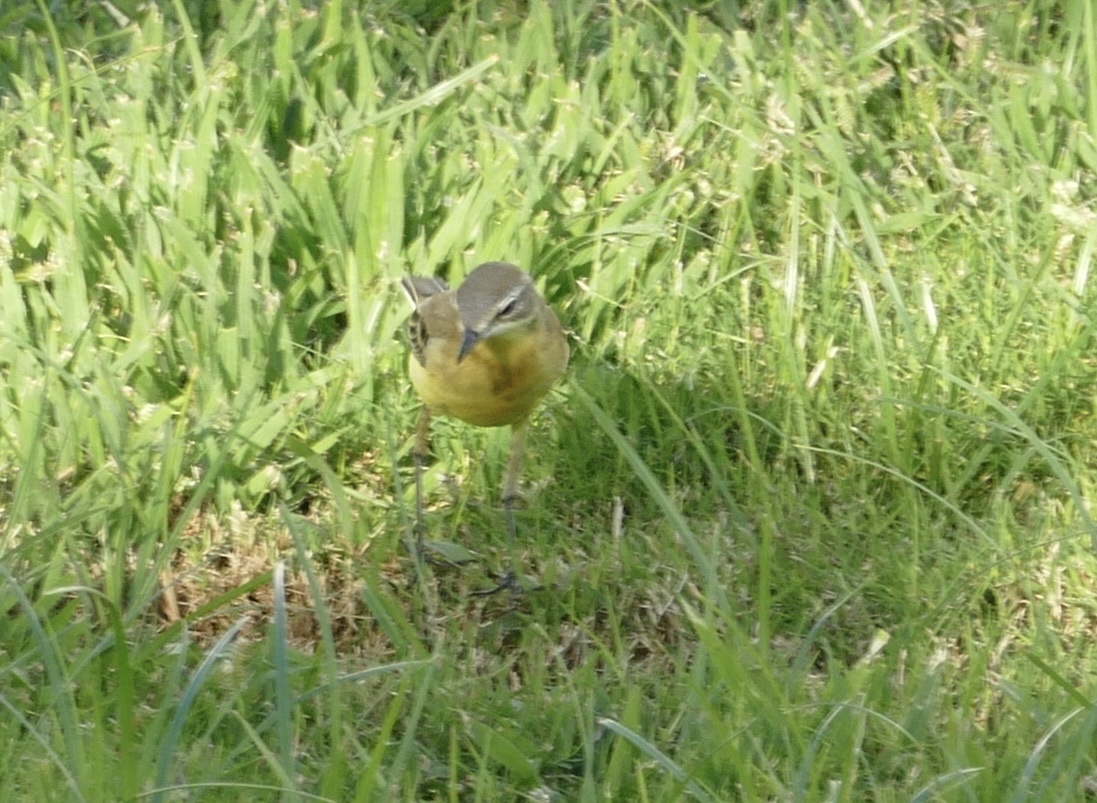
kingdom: Animalia
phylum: Chordata
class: Aves
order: Passeriformes
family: Motacillidae
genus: Motacilla
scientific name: Motacilla flava
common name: Western yellow wagtail
